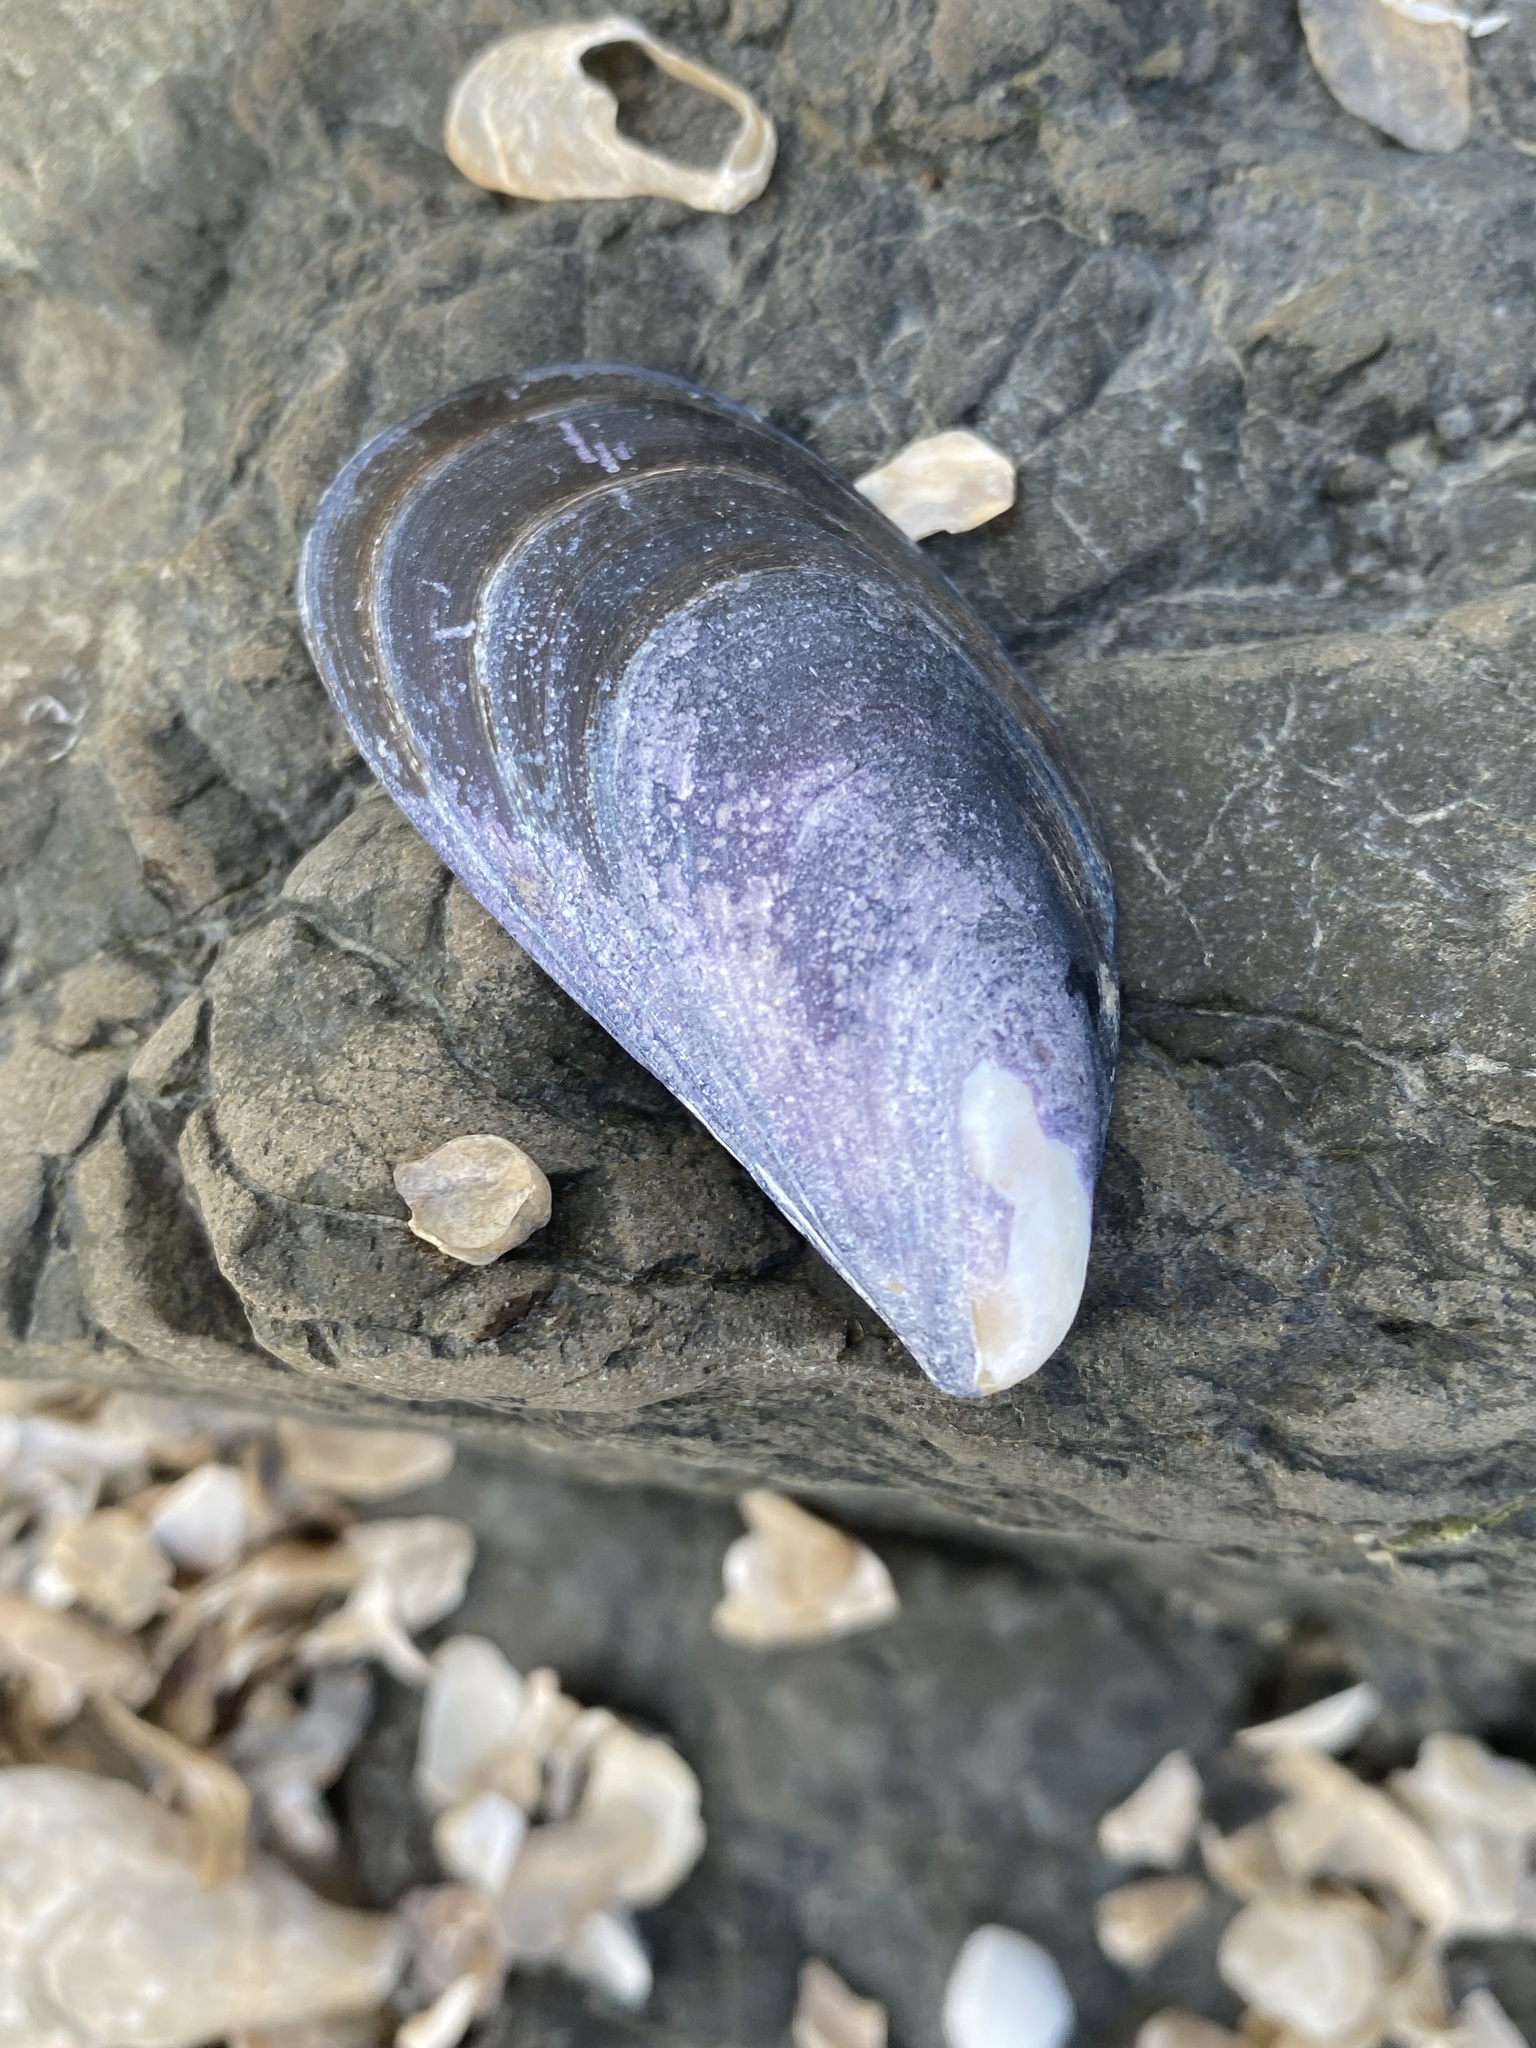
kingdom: Animalia
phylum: Mollusca
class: Bivalvia
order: Mytilida
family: Mytilidae
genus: Mytilus
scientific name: Mytilus
